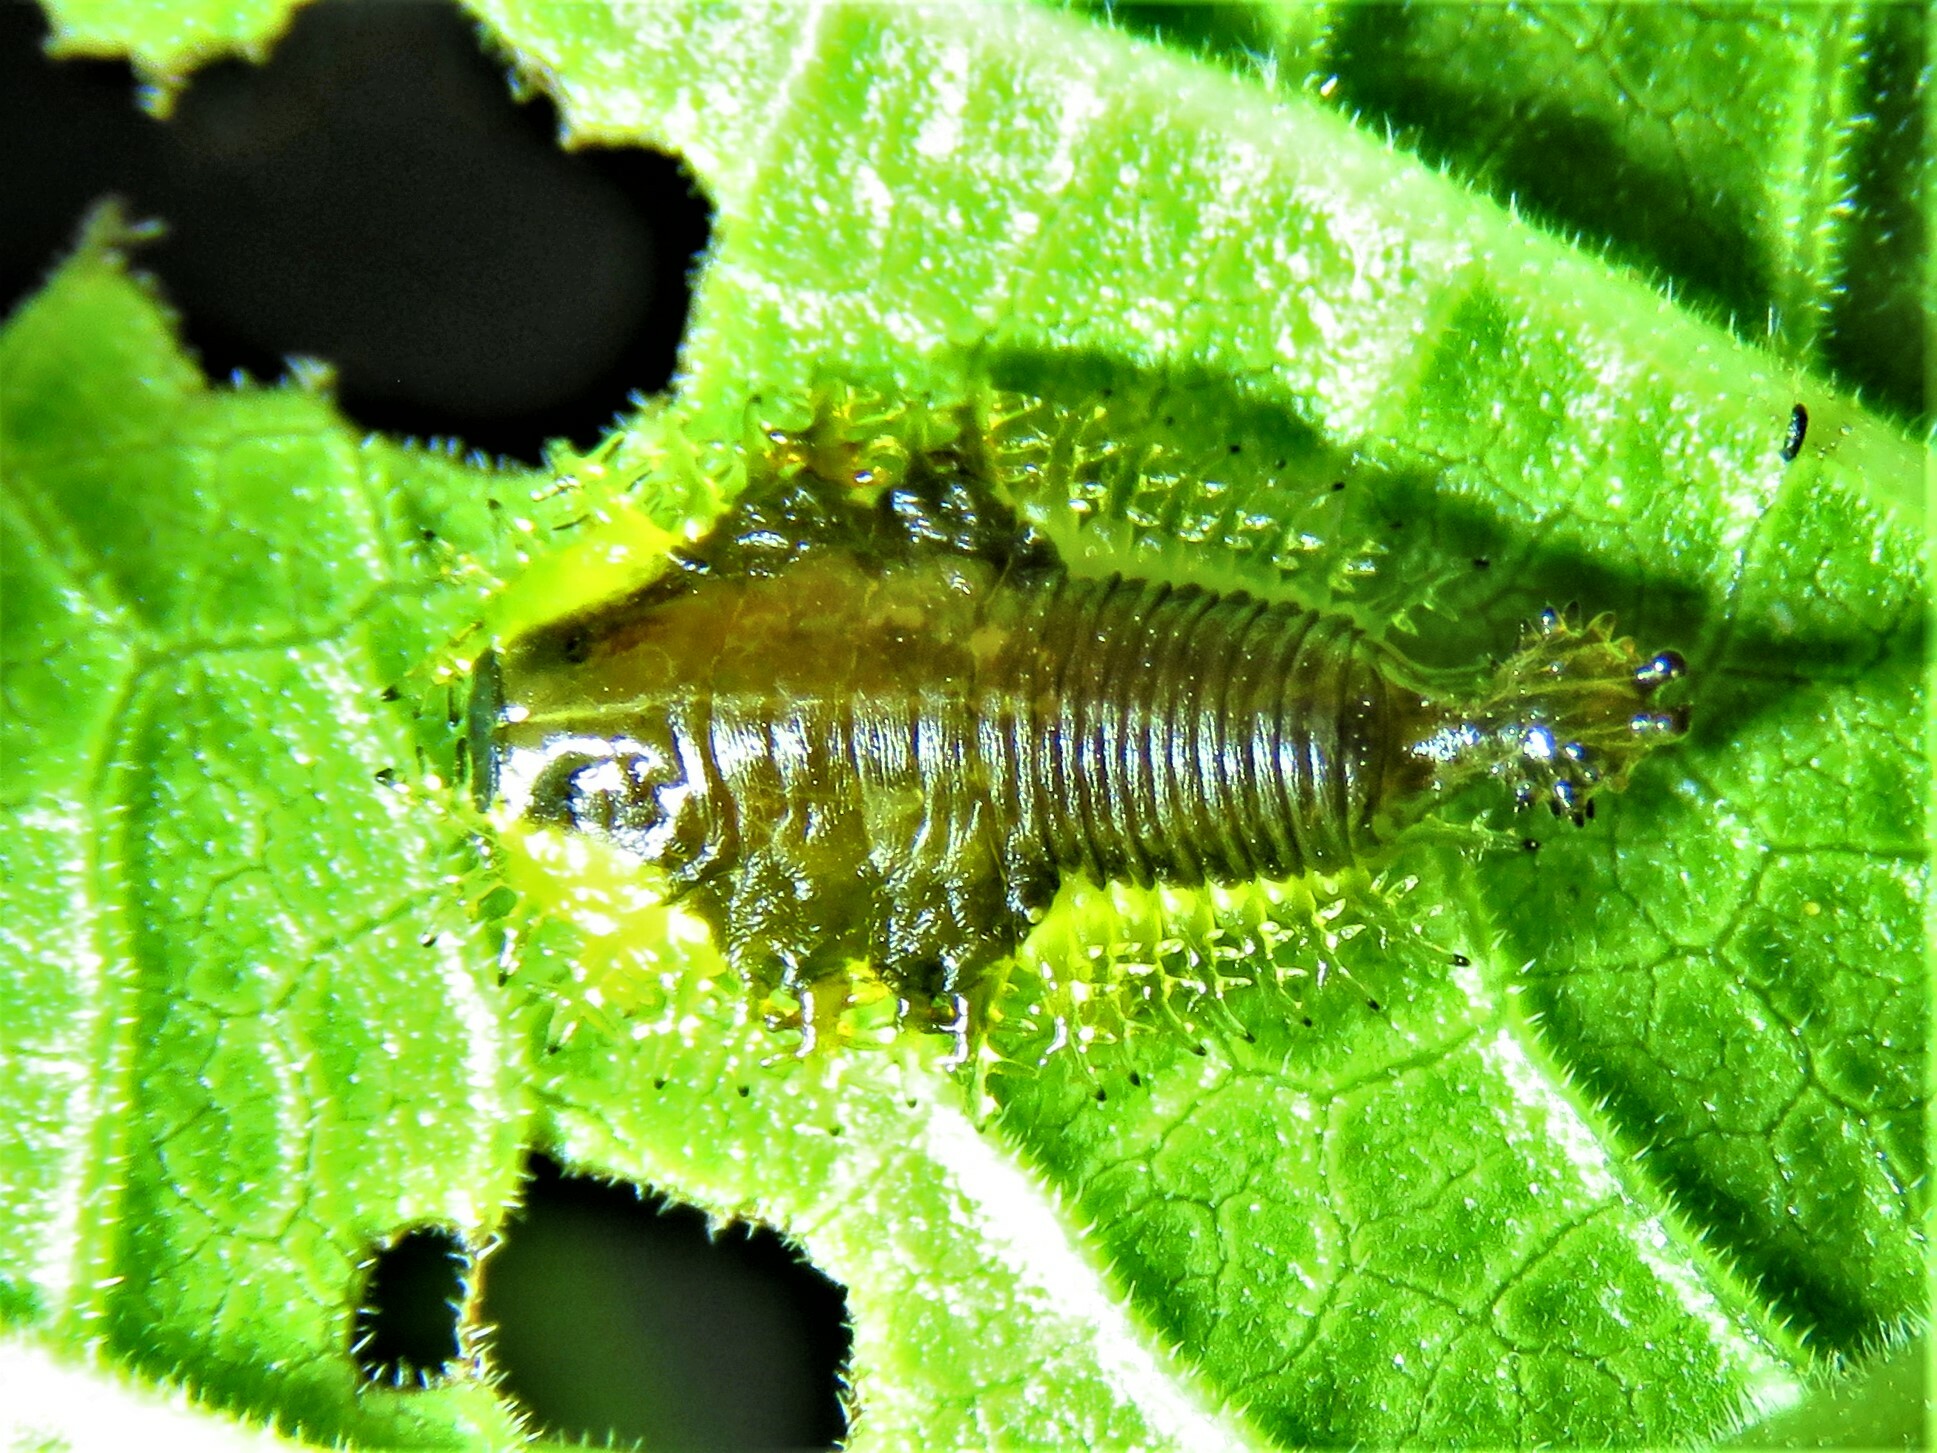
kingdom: Animalia
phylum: Arthropoda
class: Insecta
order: Coleoptera
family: Chrysomelidae
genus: Coptocycla
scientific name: Coptocycla texana
